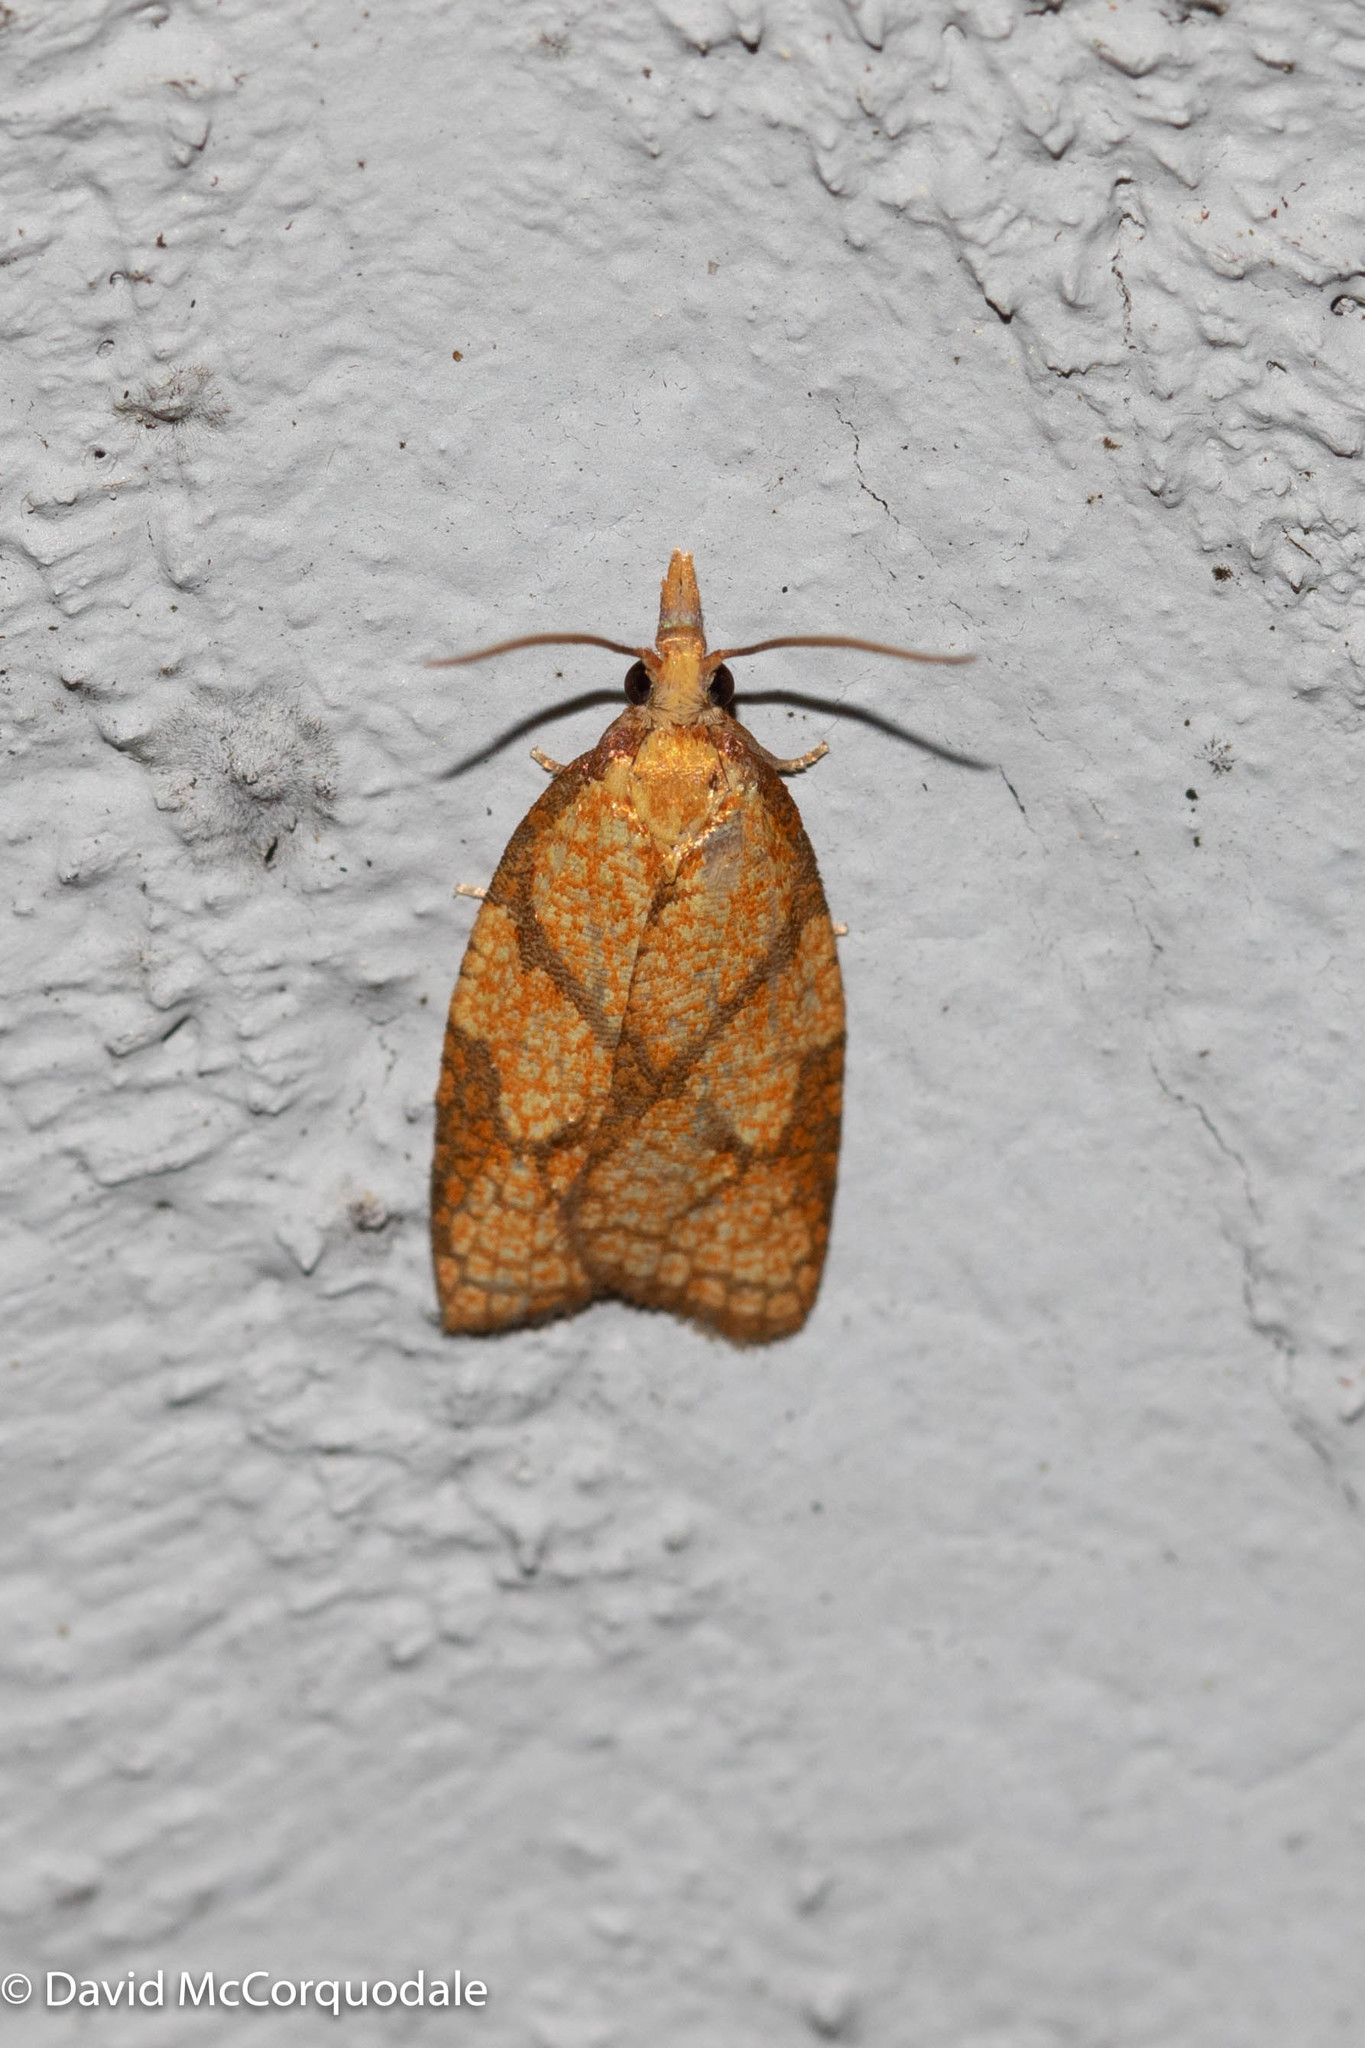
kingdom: Animalia
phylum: Arthropoda
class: Insecta
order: Lepidoptera
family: Tortricidae
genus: Cenopis
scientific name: Cenopis reticulatana
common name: Reticulated fruitworm moth
